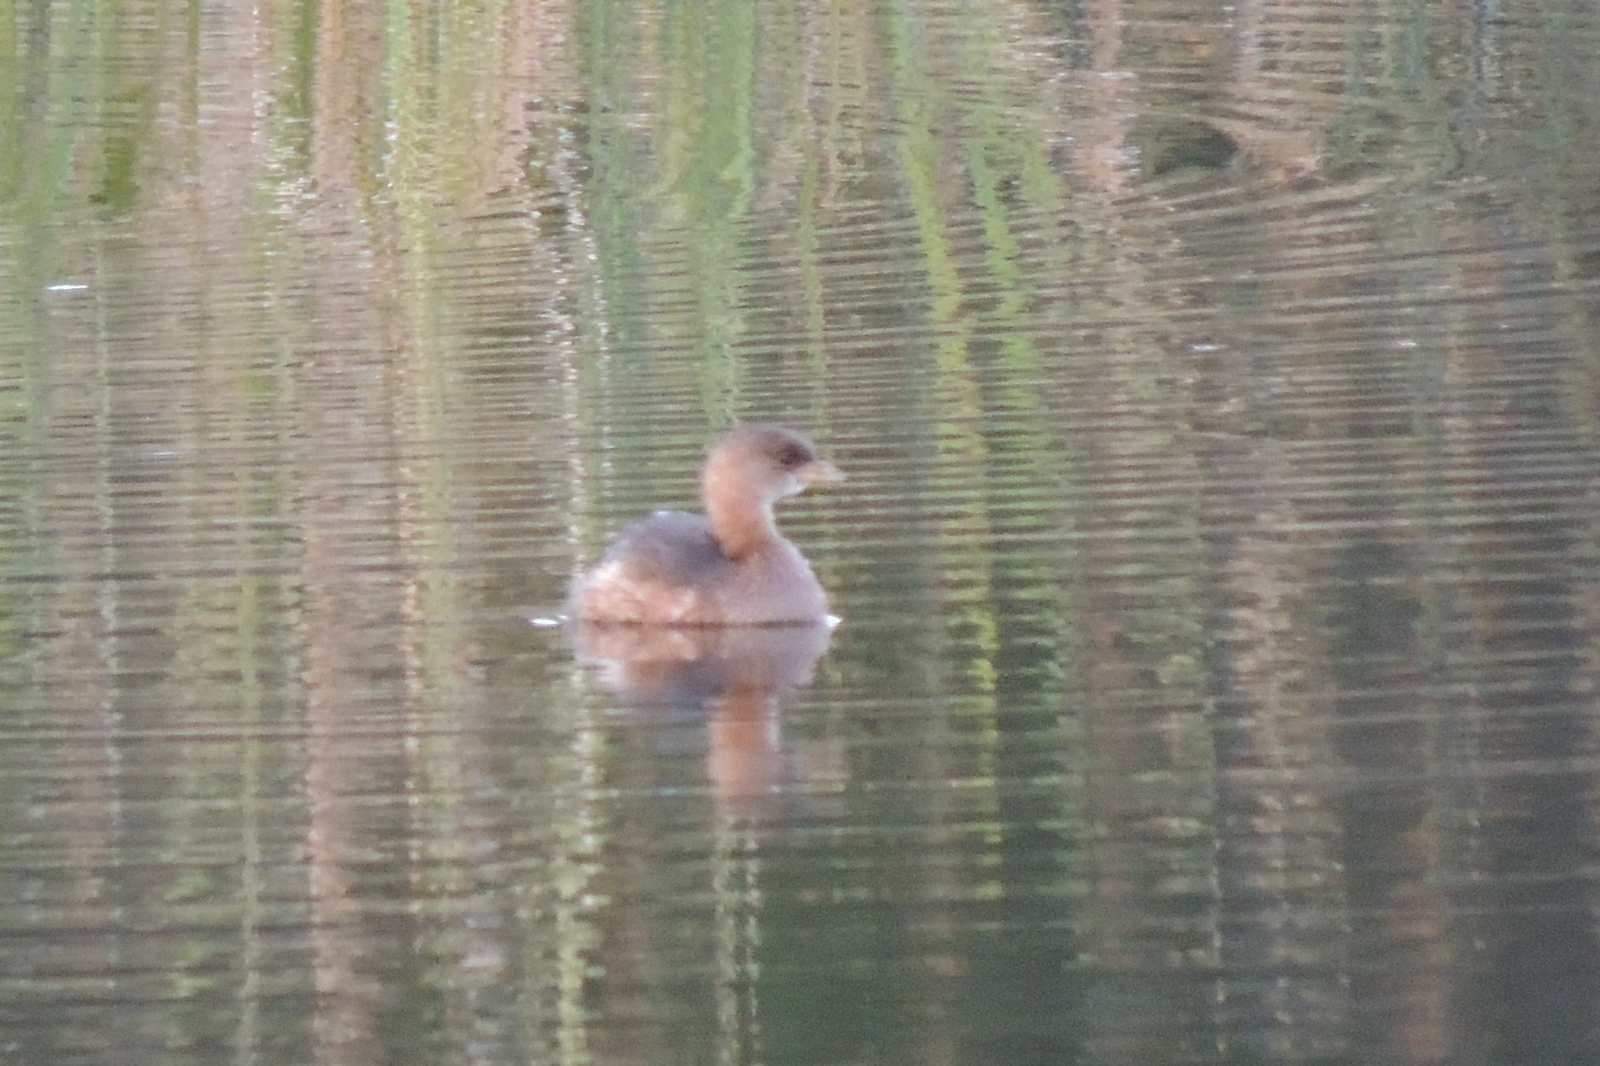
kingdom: Animalia
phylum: Chordata
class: Aves
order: Podicipediformes
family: Podicipedidae
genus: Podilymbus
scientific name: Podilymbus podiceps
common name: Pied-billed grebe
